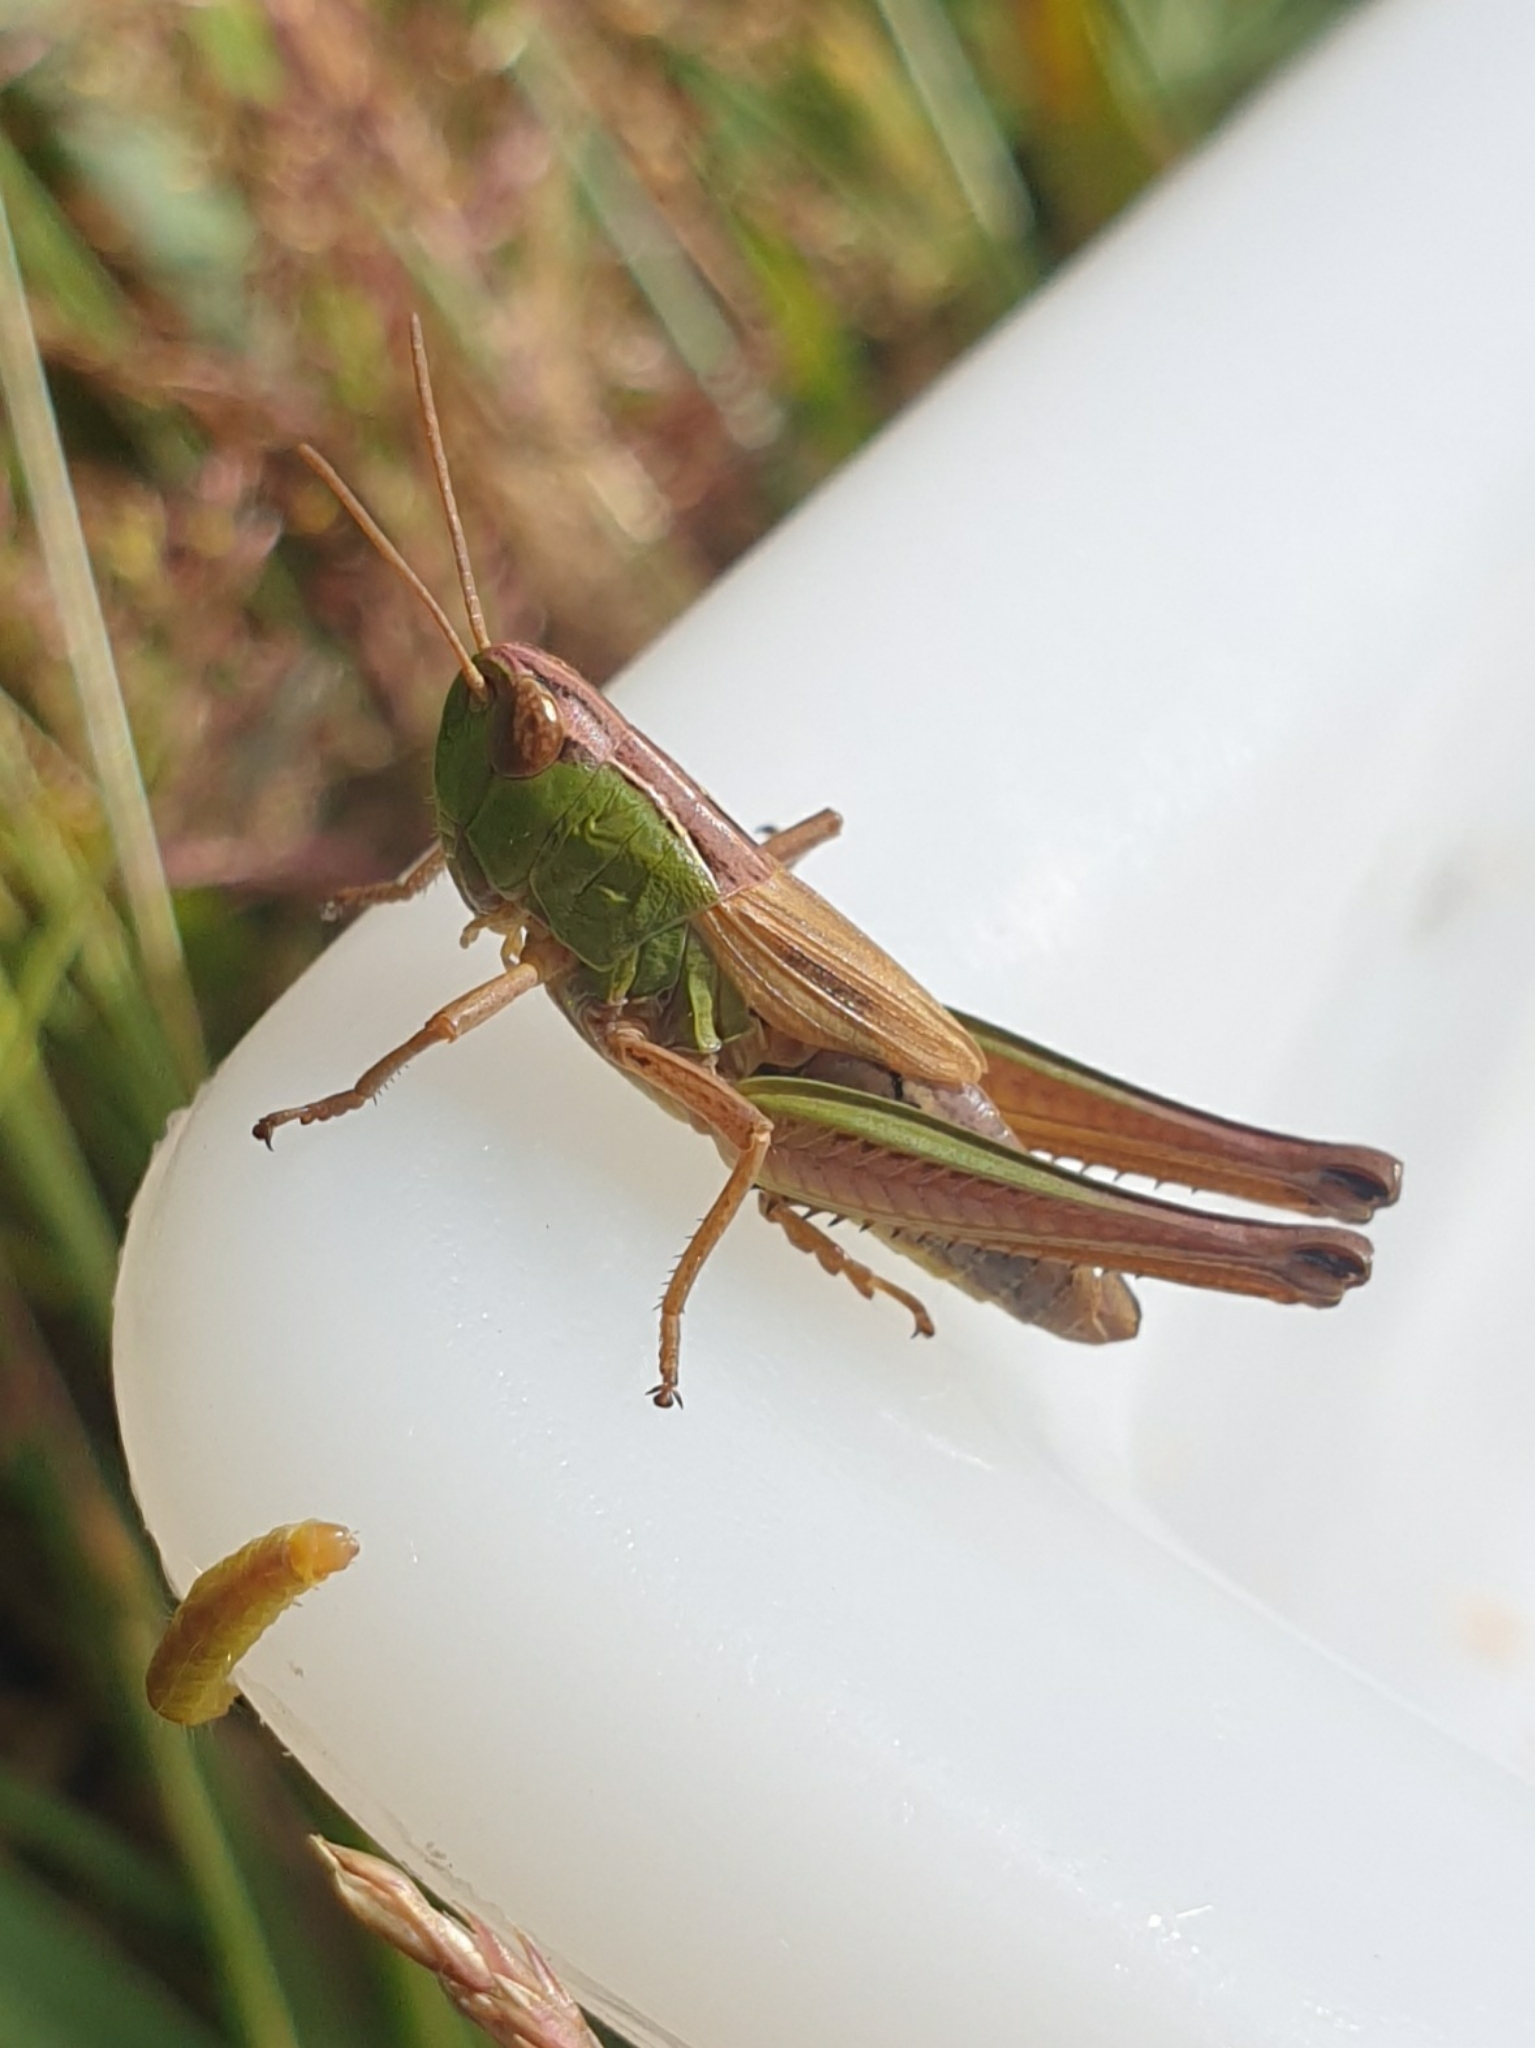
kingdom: Animalia
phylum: Arthropoda
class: Insecta
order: Orthoptera
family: Acrididae
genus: Pseudochorthippus
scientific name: Pseudochorthippus parallelus
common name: Meadow grasshopper
